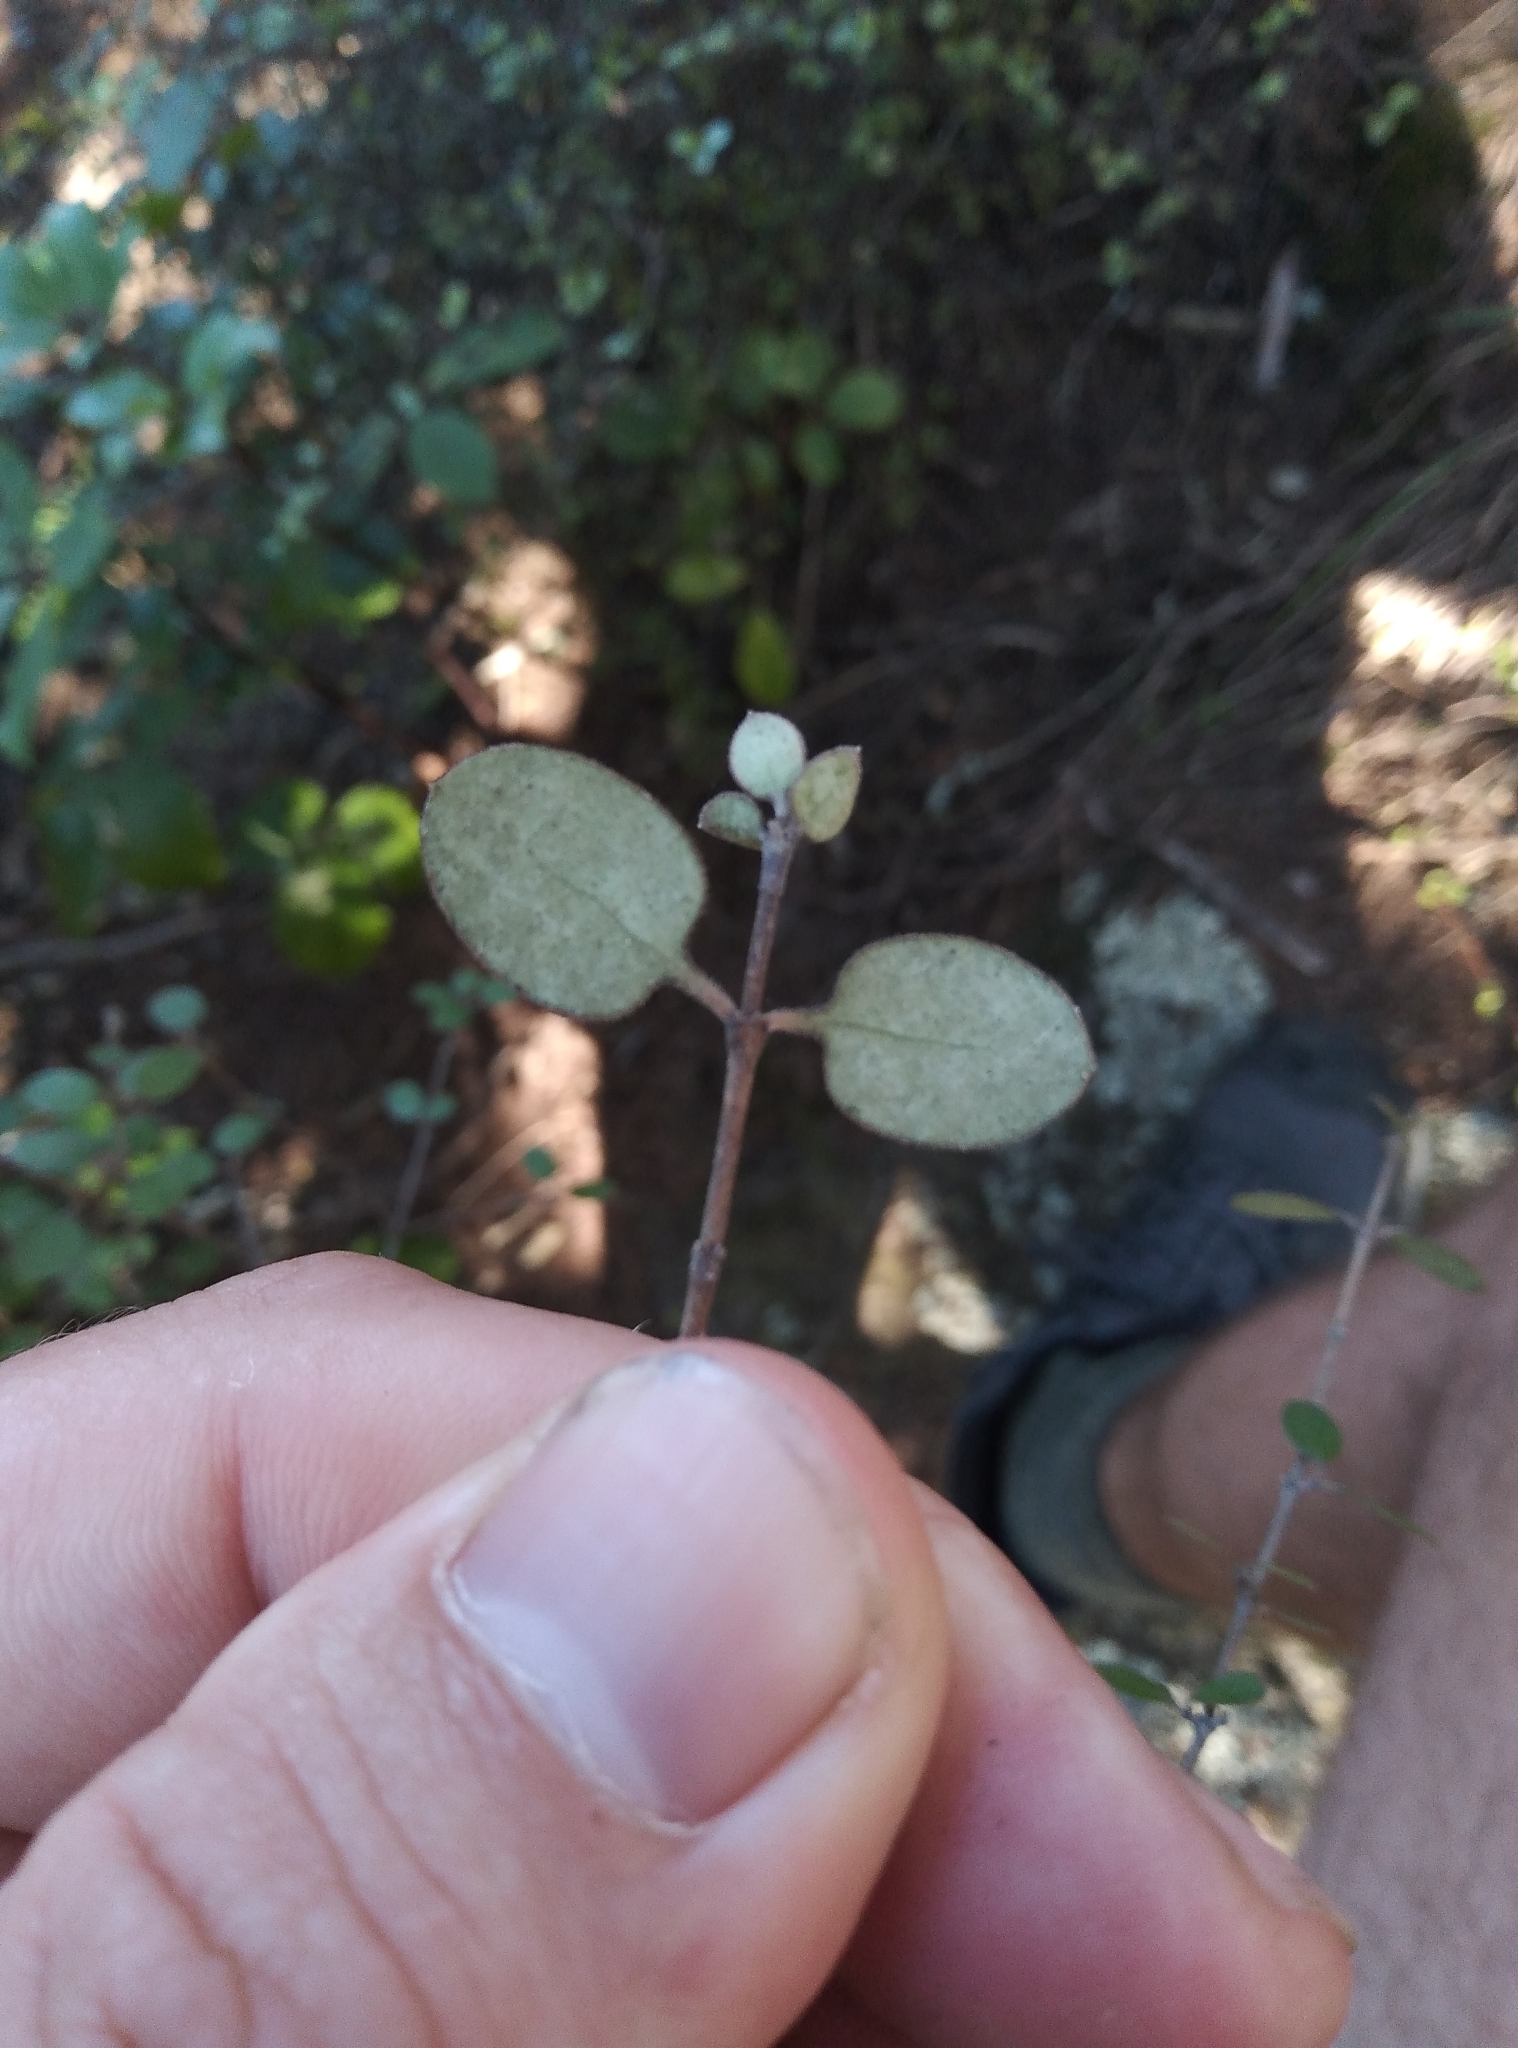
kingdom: Plantae
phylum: Tracheophyta
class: Magnoliopsida
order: Gentianales
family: Rubiaceae
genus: Coprosma
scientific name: Coprosma crassifolia
